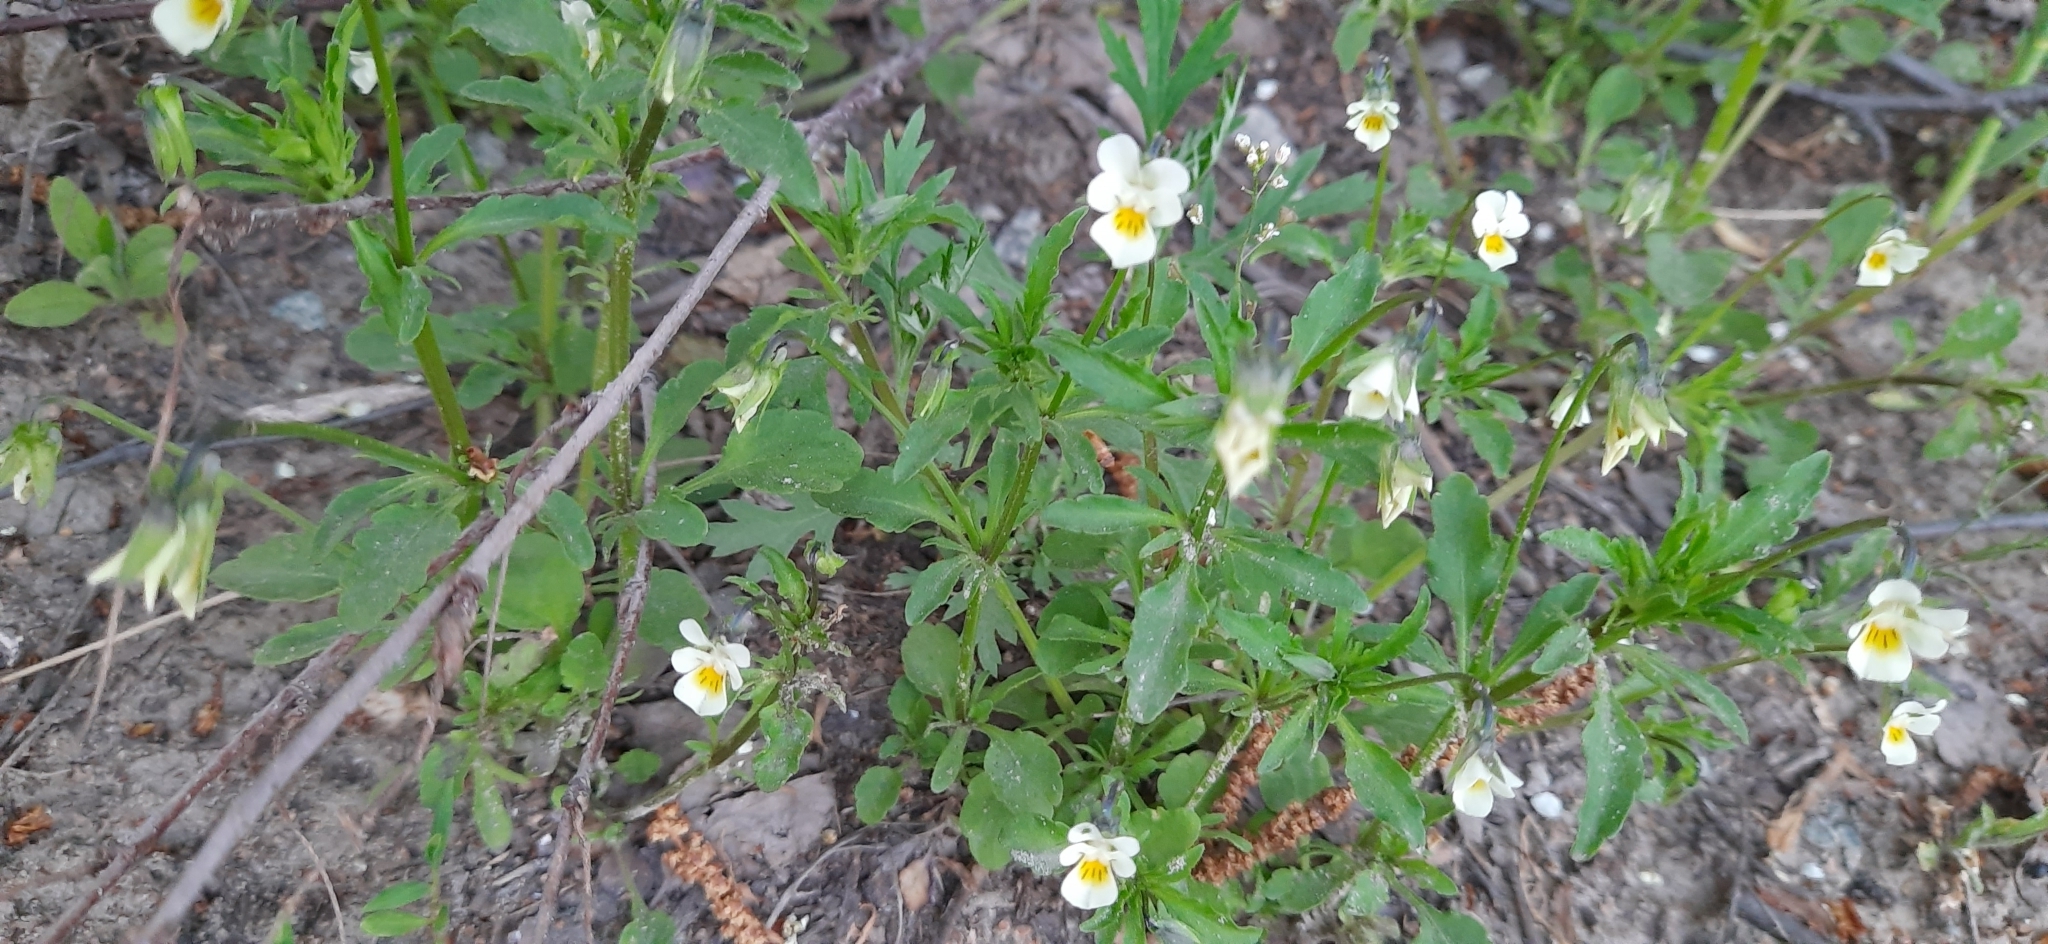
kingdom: Plantae
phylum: Tracheophyta
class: Magnoliopsida
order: Malpighiales
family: Violaceae
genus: Viola
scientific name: Viola arvensis
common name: Field pansy
